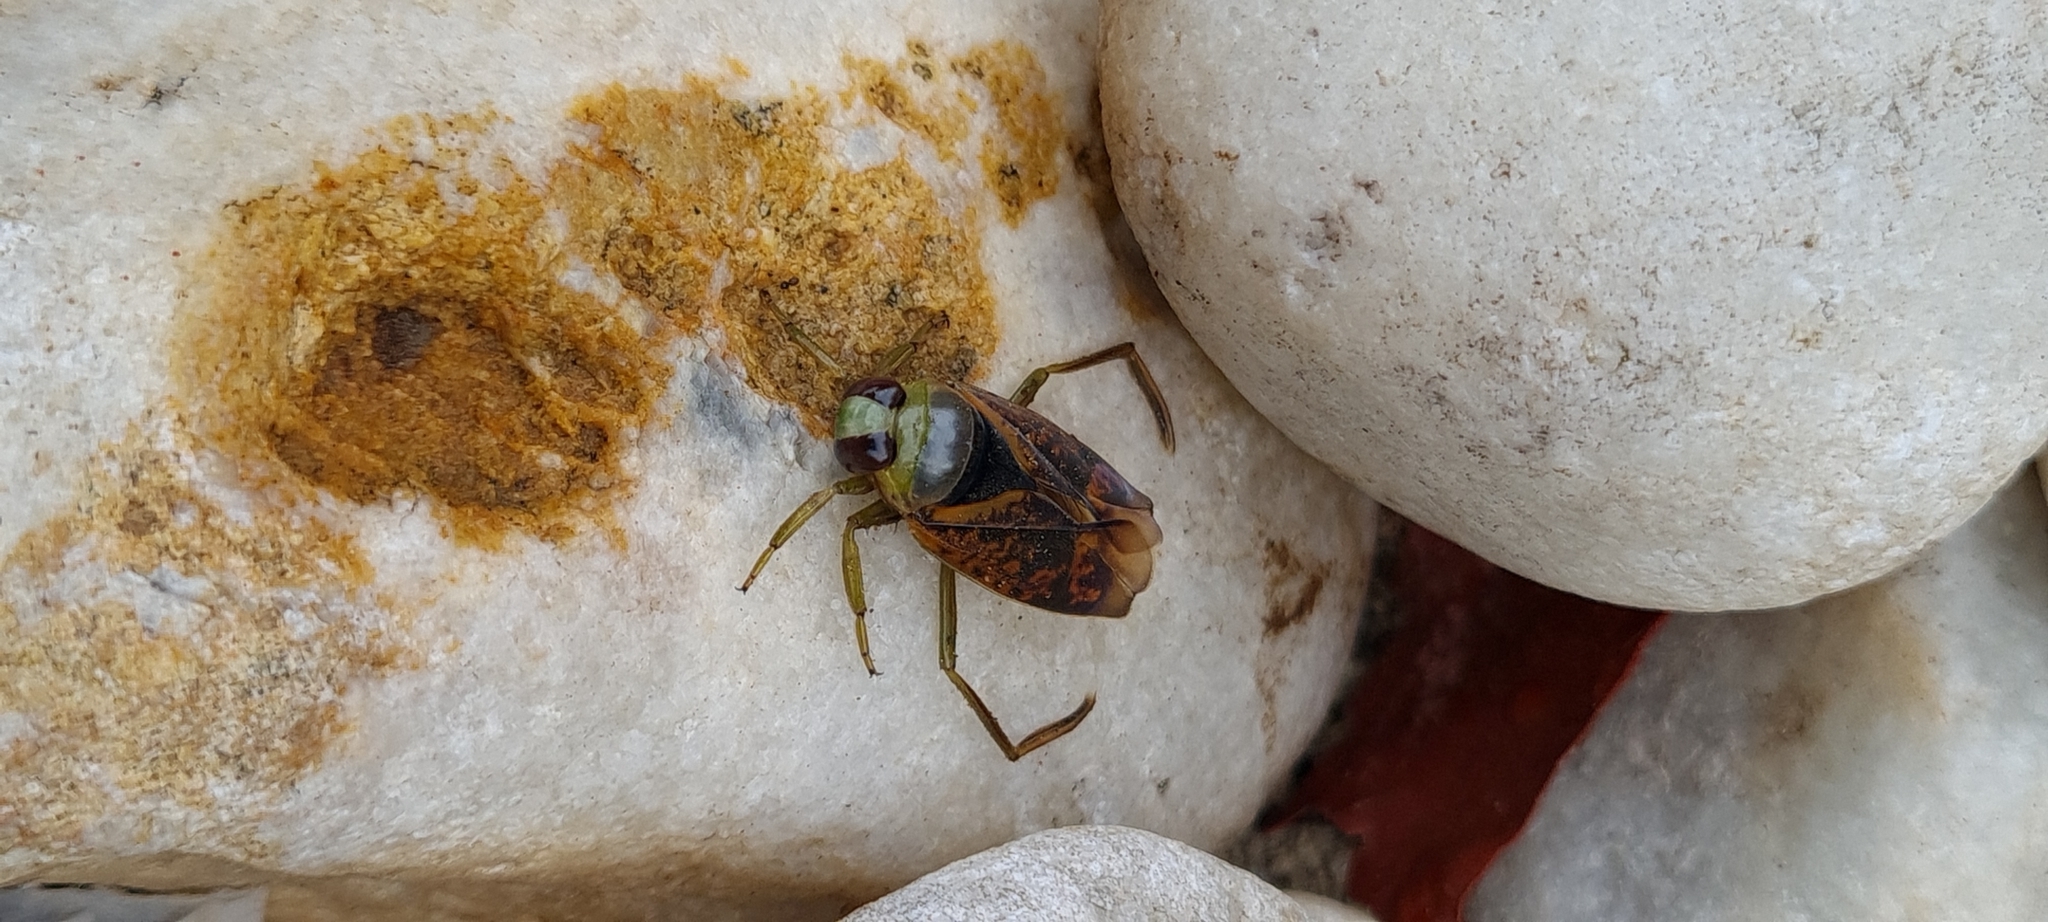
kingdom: Animalia
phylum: Arthropoda
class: Insecta
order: Hemiptera
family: Notonectidae
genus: Notonecta
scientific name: Notonecta maculata
